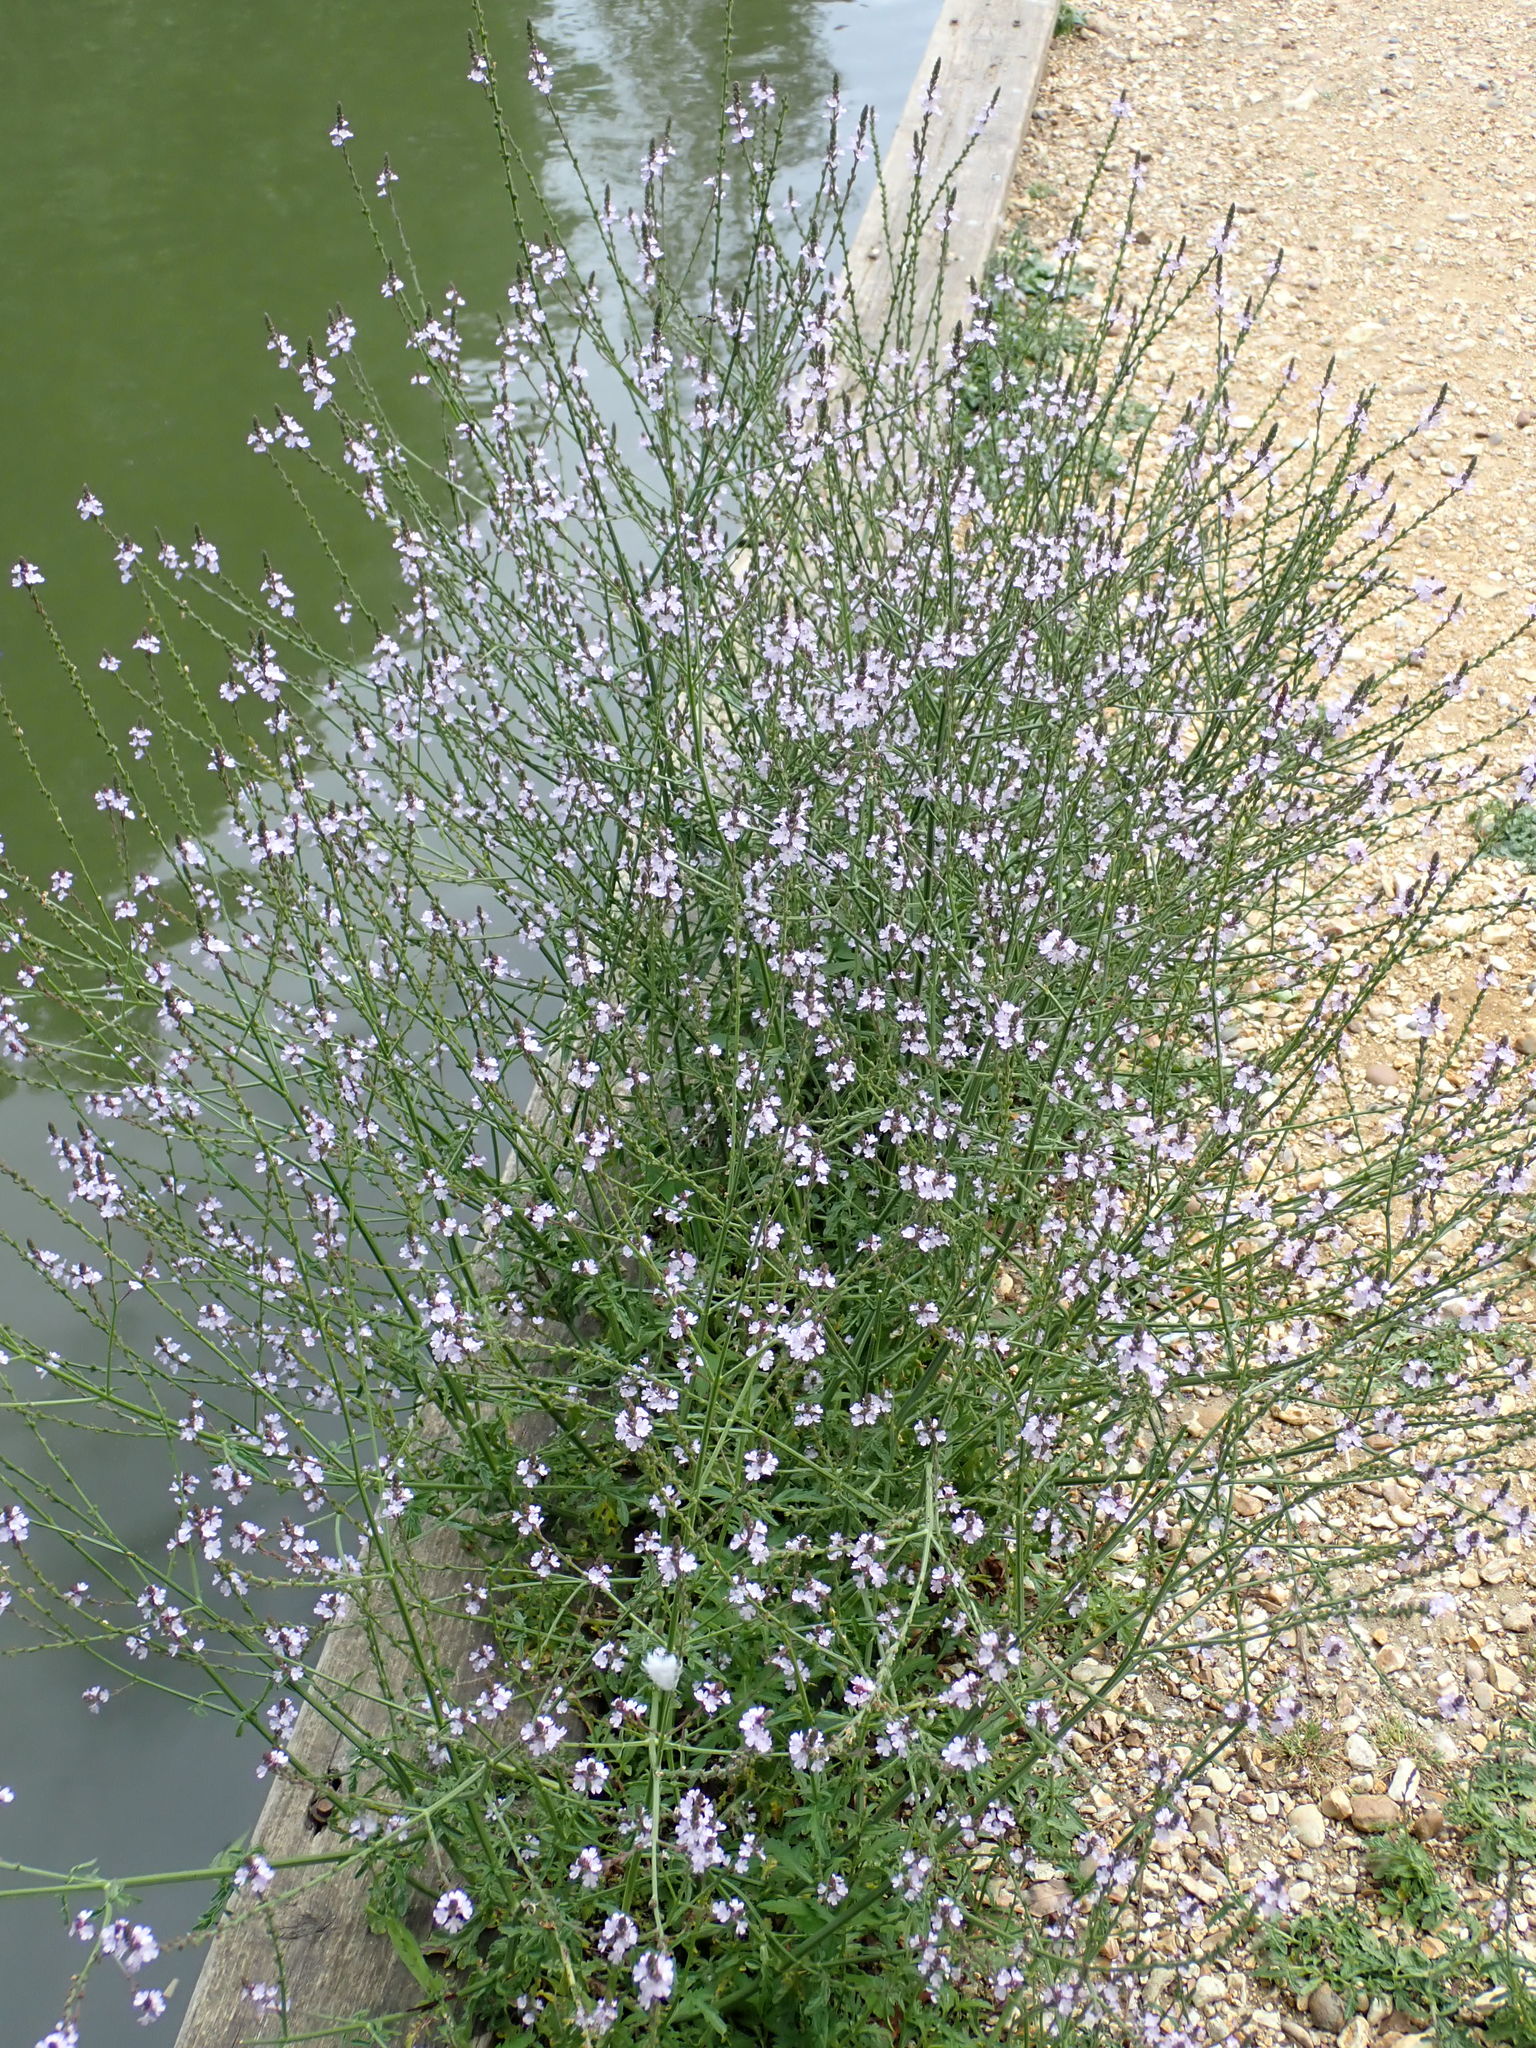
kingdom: Plantae
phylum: Tracheophyta
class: Magnoliopsida
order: Lamiales
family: Verbenaceae
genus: Verbena
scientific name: Verbena officinalis
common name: Vervain
